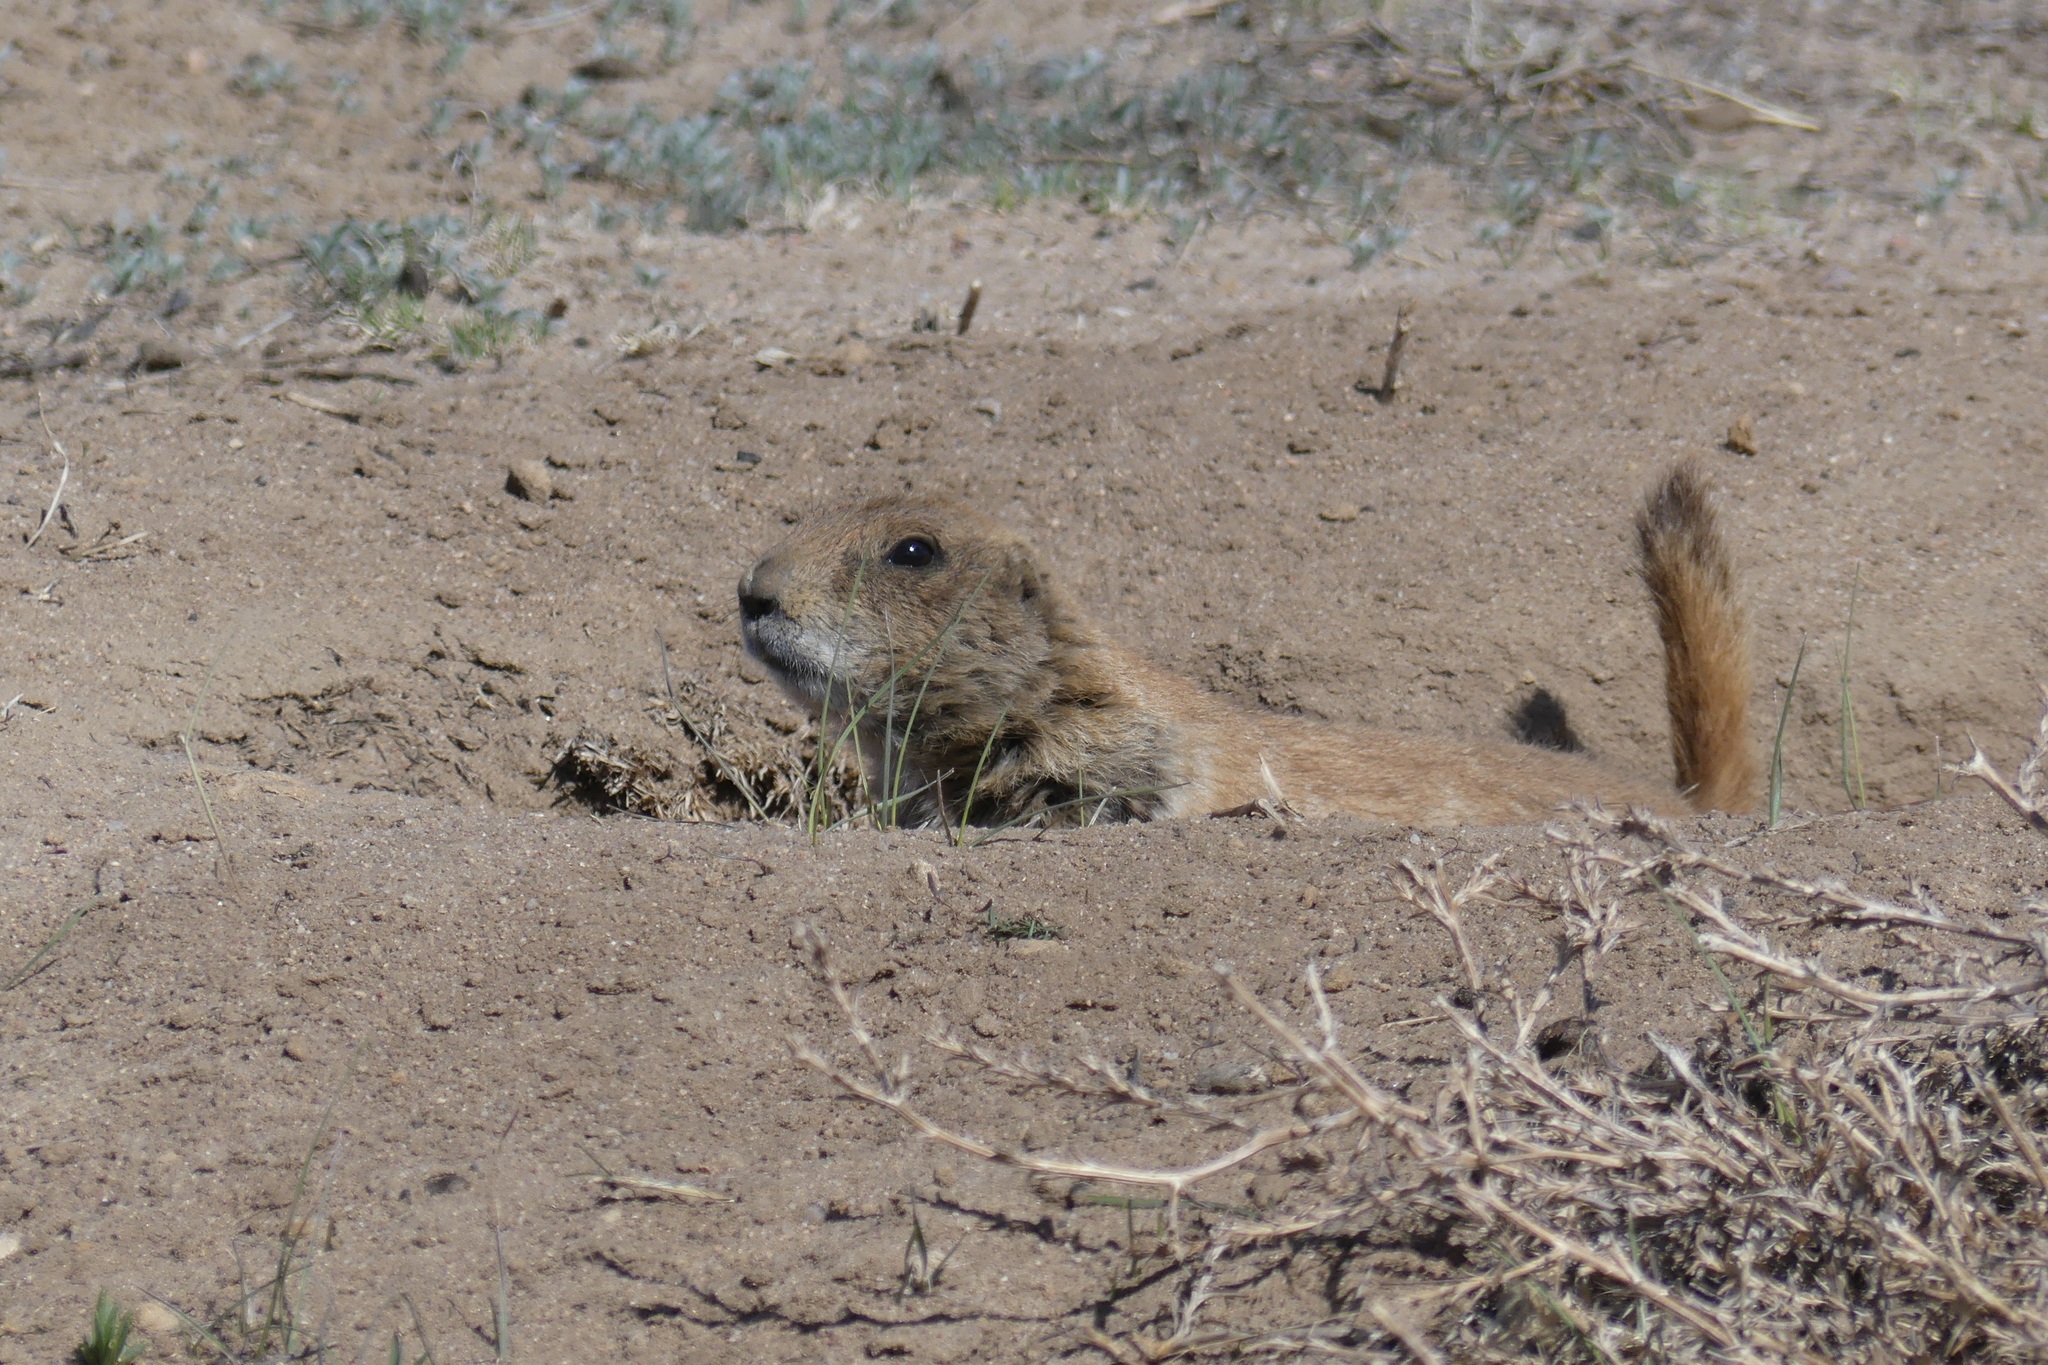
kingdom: Animalia
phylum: Chordata
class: Mammalia
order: Rodentia
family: Sciuridae
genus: Cynomys
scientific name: Cynomys ludovicianus
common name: Black-tailed prairie dog
